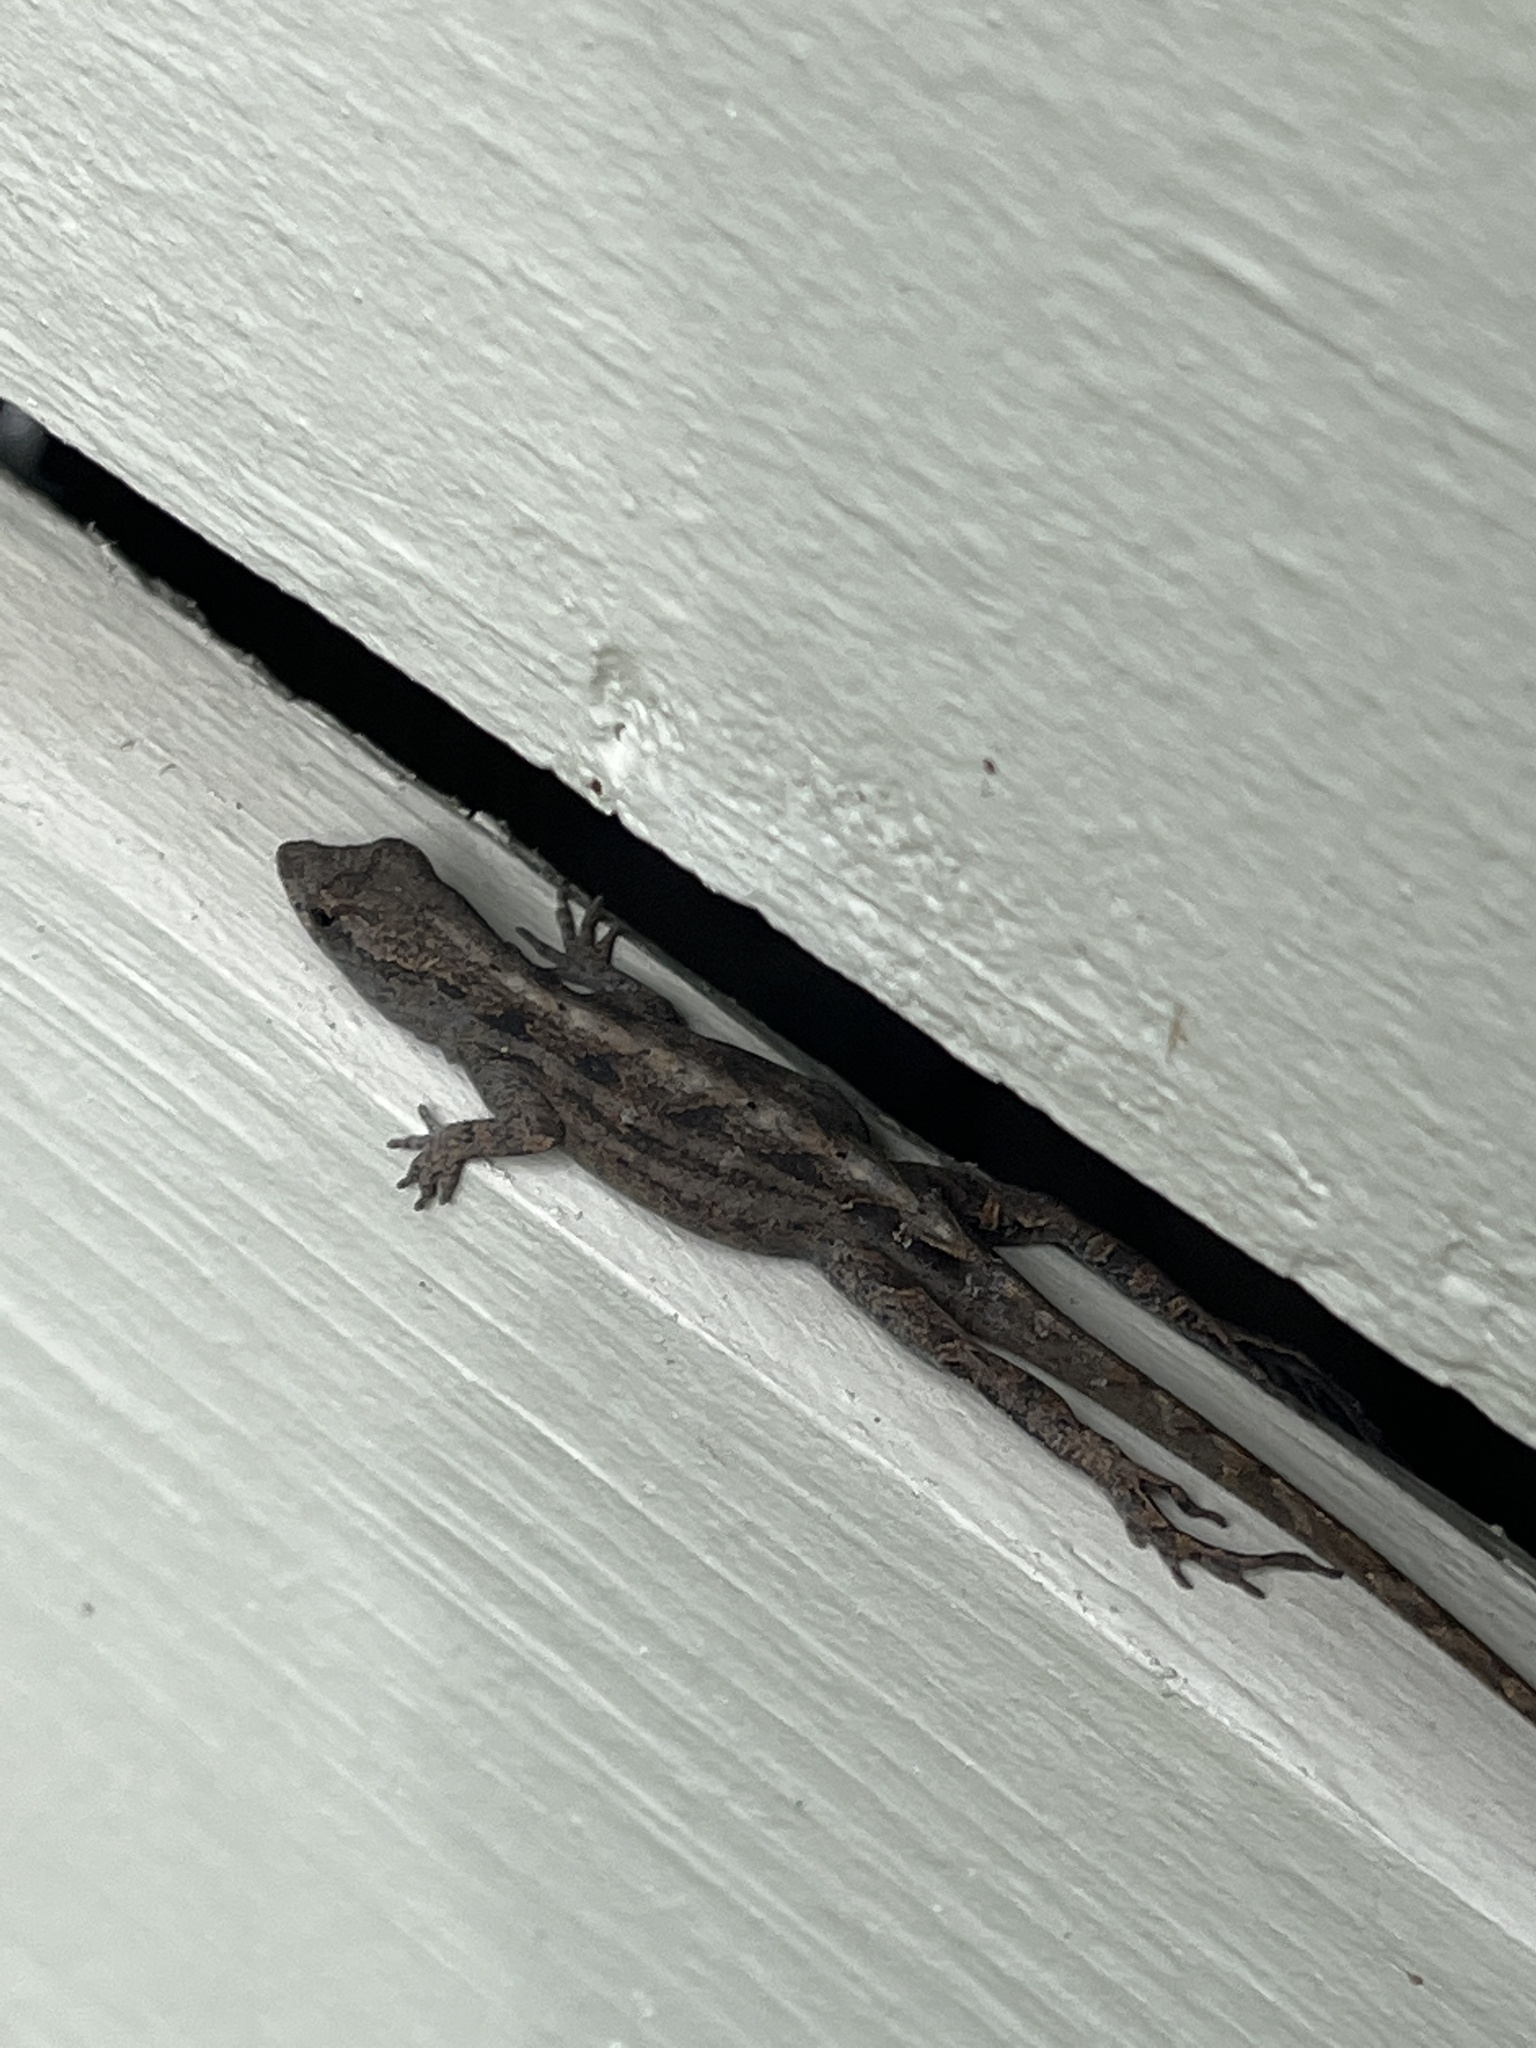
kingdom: Animalia
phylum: Chordata
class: Squamata
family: Dactyloidae
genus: Anolis
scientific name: Anolis sagrei
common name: Brown anole
